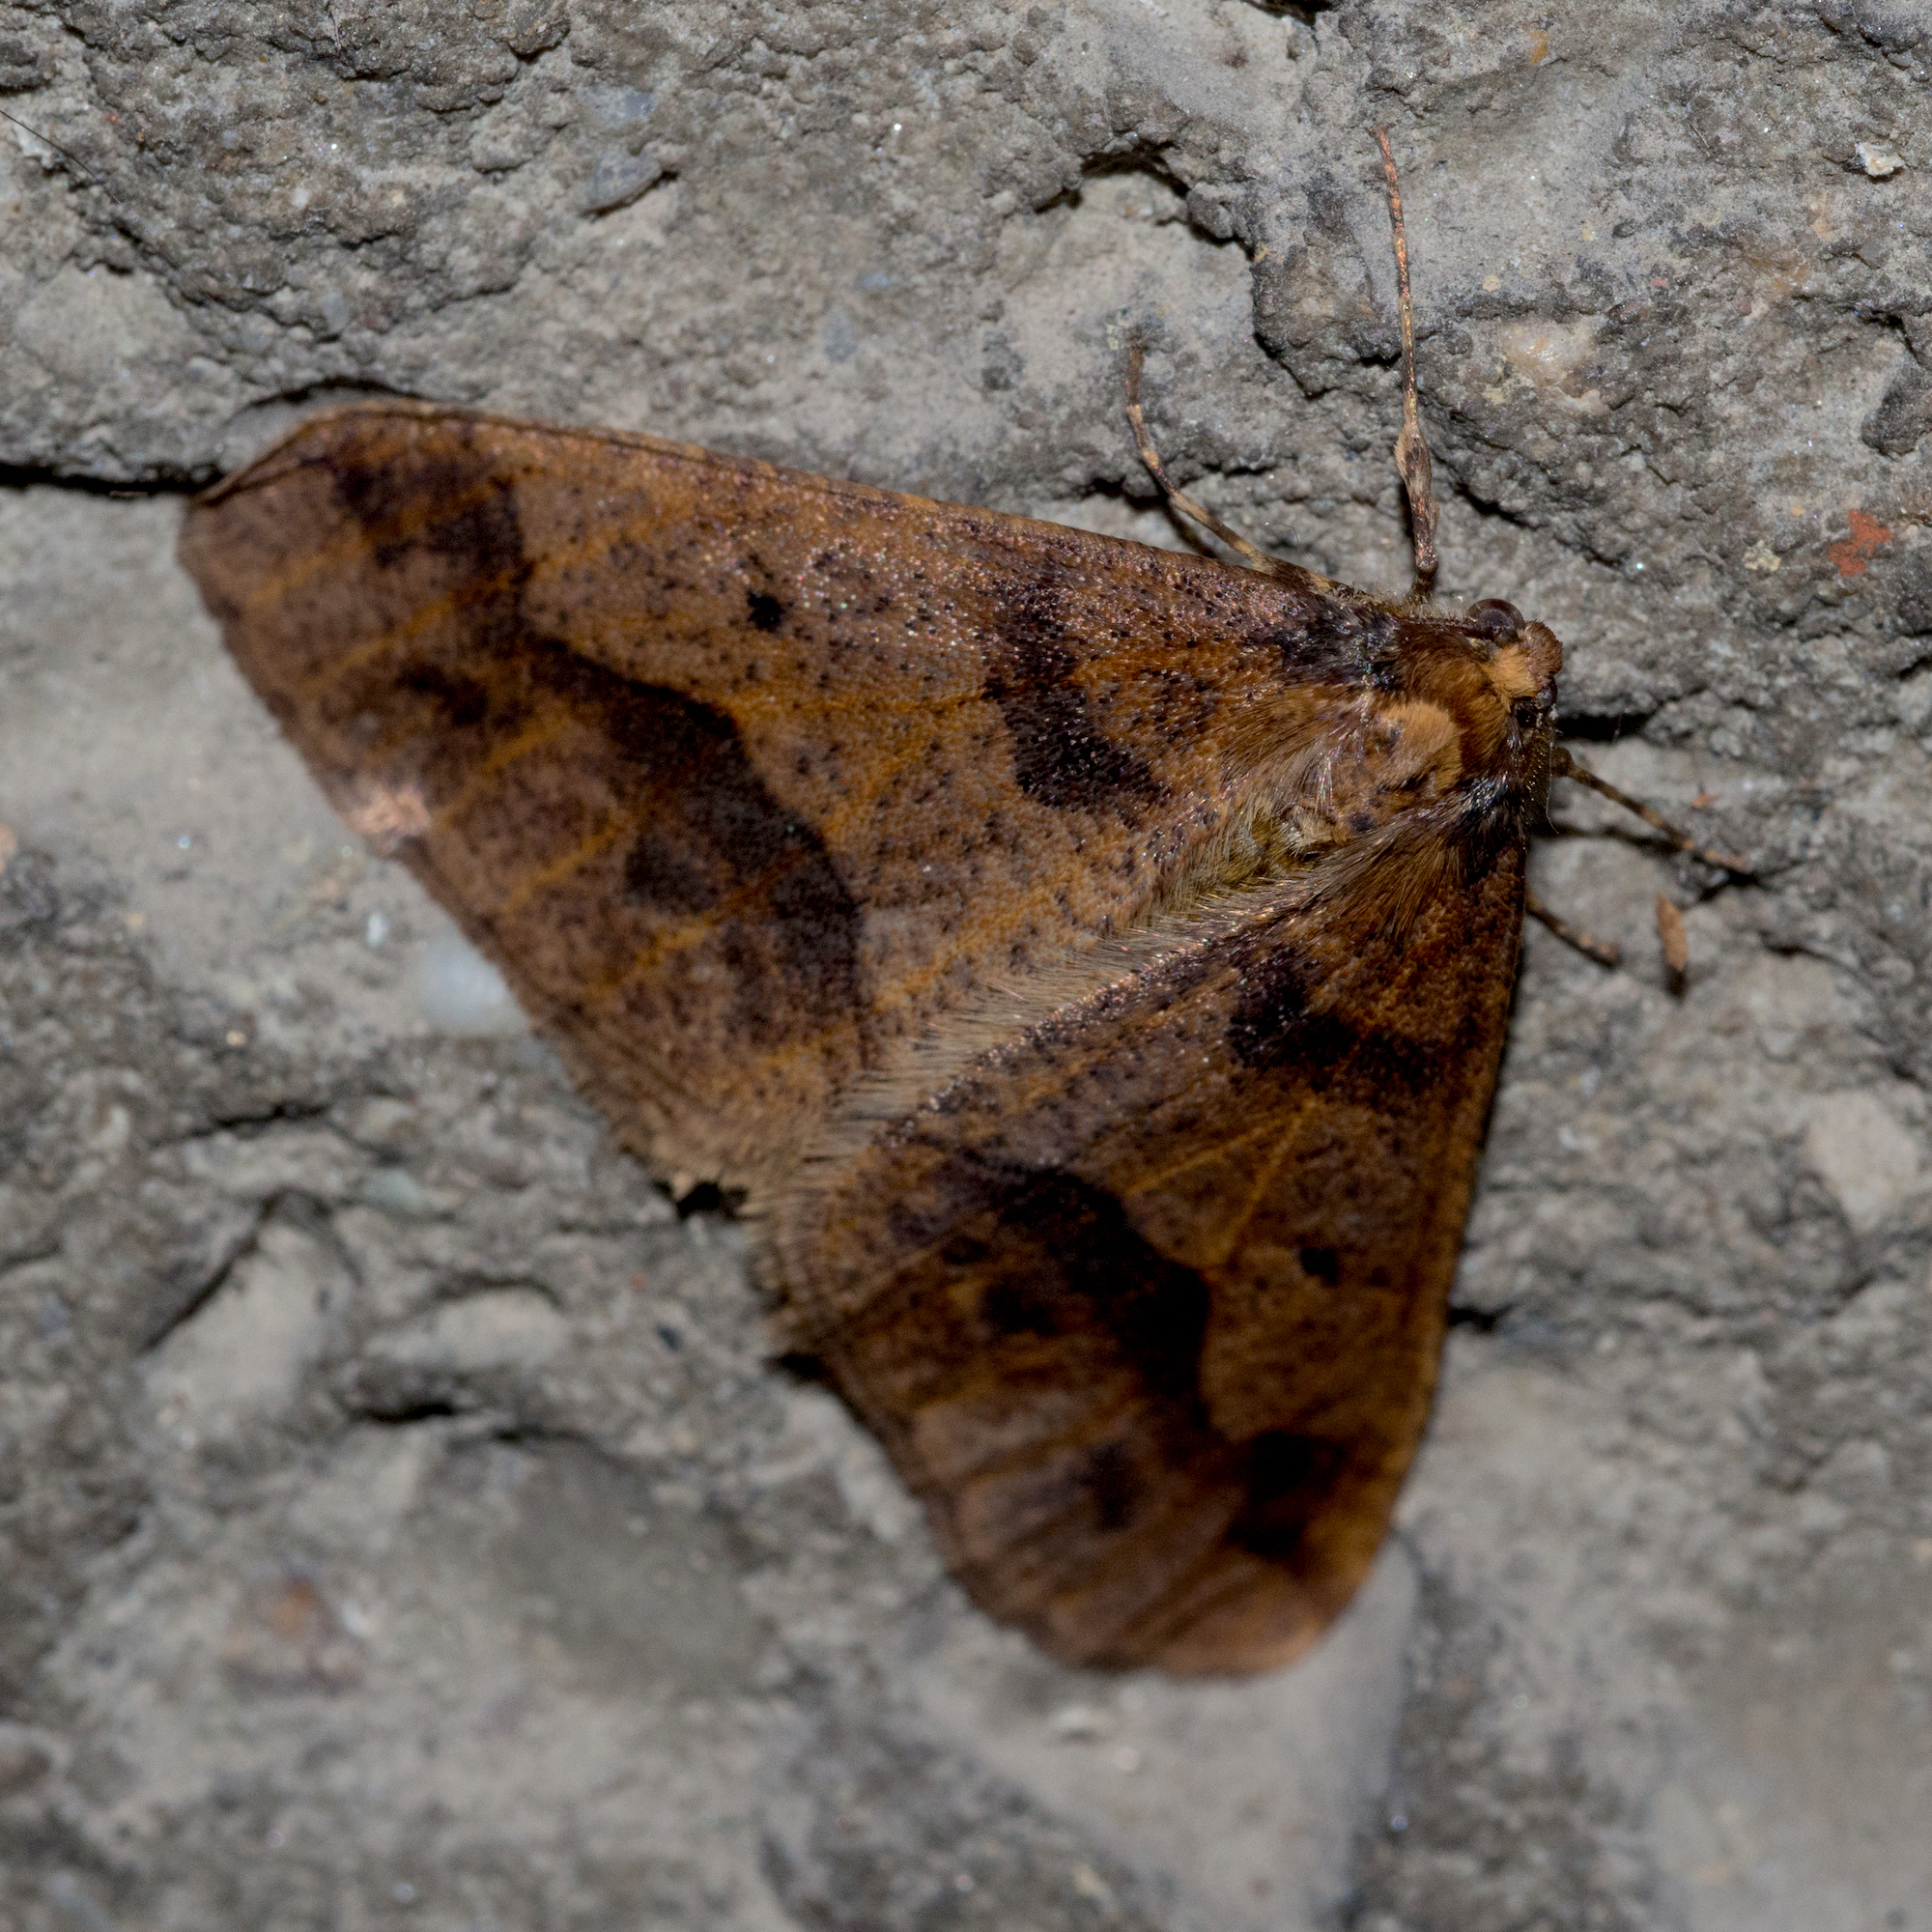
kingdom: Animalia
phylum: Arthropoda
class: Insecta
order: Lepidoptera
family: Geometridae
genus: Erannis
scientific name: Erannis defoliaria
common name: Mottled umber
